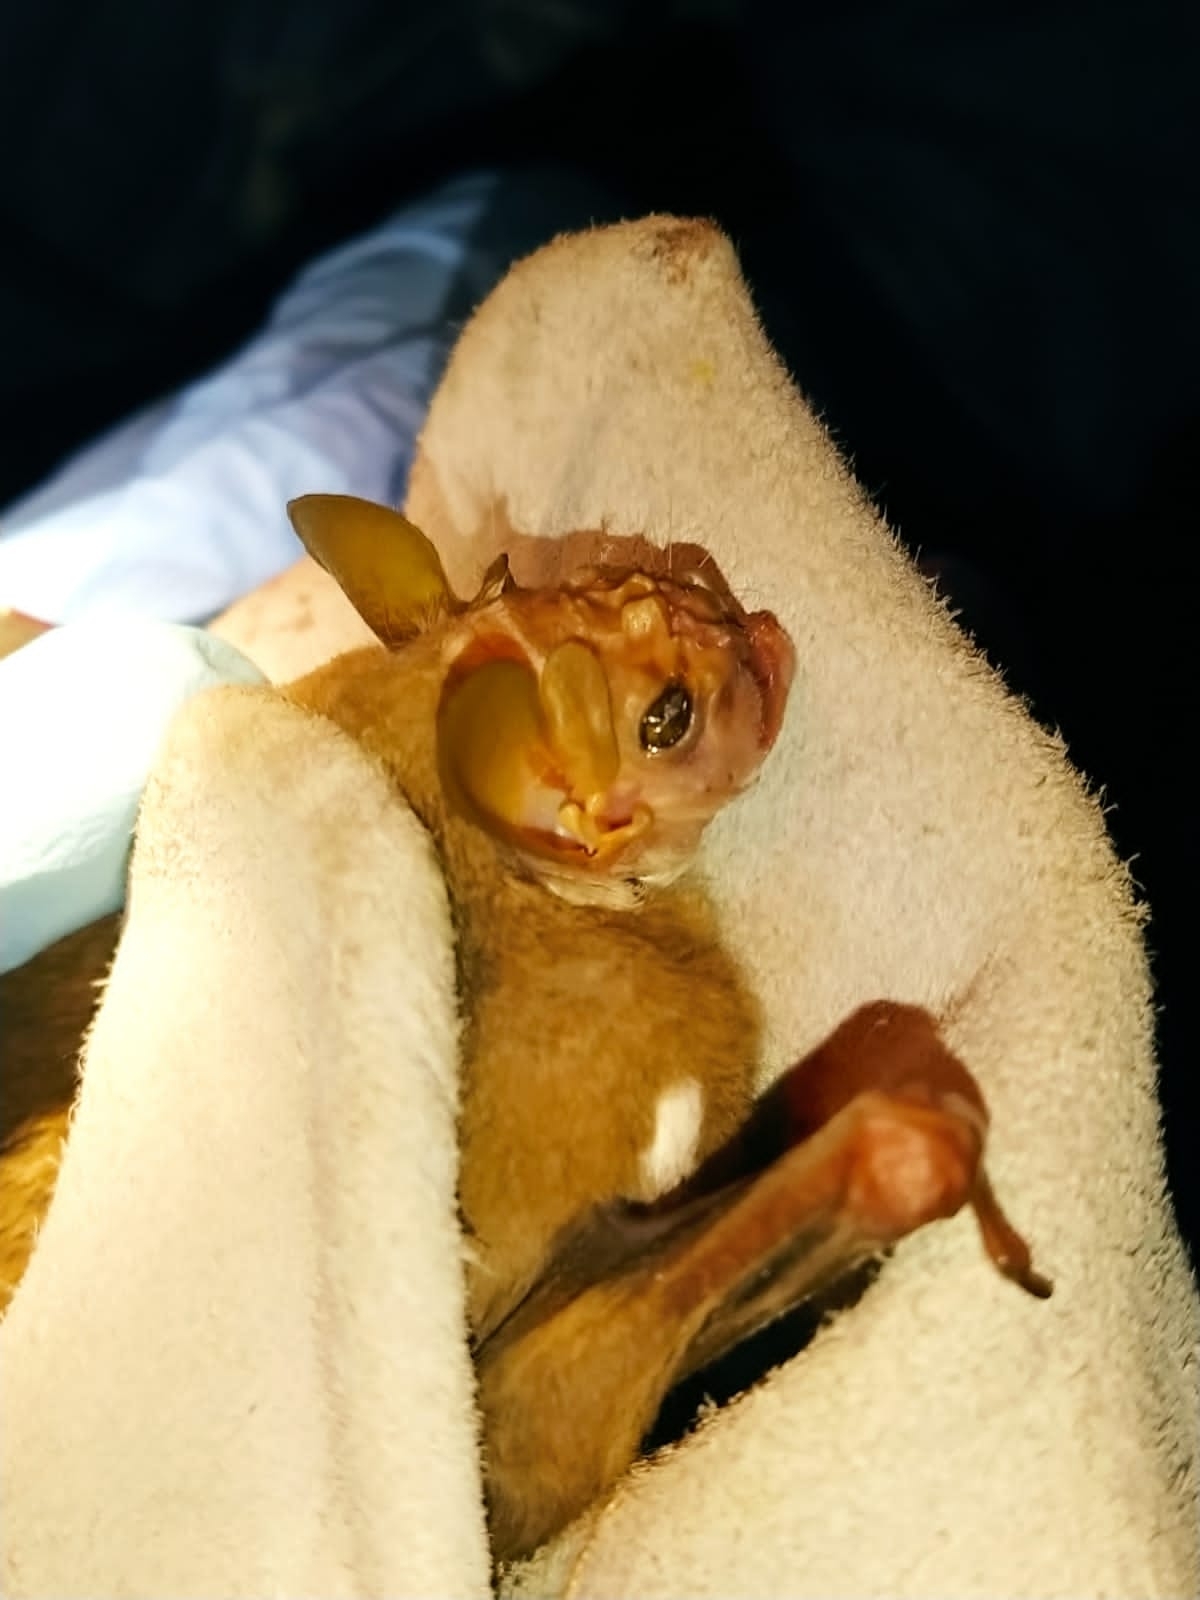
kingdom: Animalia
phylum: Chordata
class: Mammalia
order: Chiroptera
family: Phyllostomidae
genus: Centurio
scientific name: Centurio senex
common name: Wrinkle-faced bat
